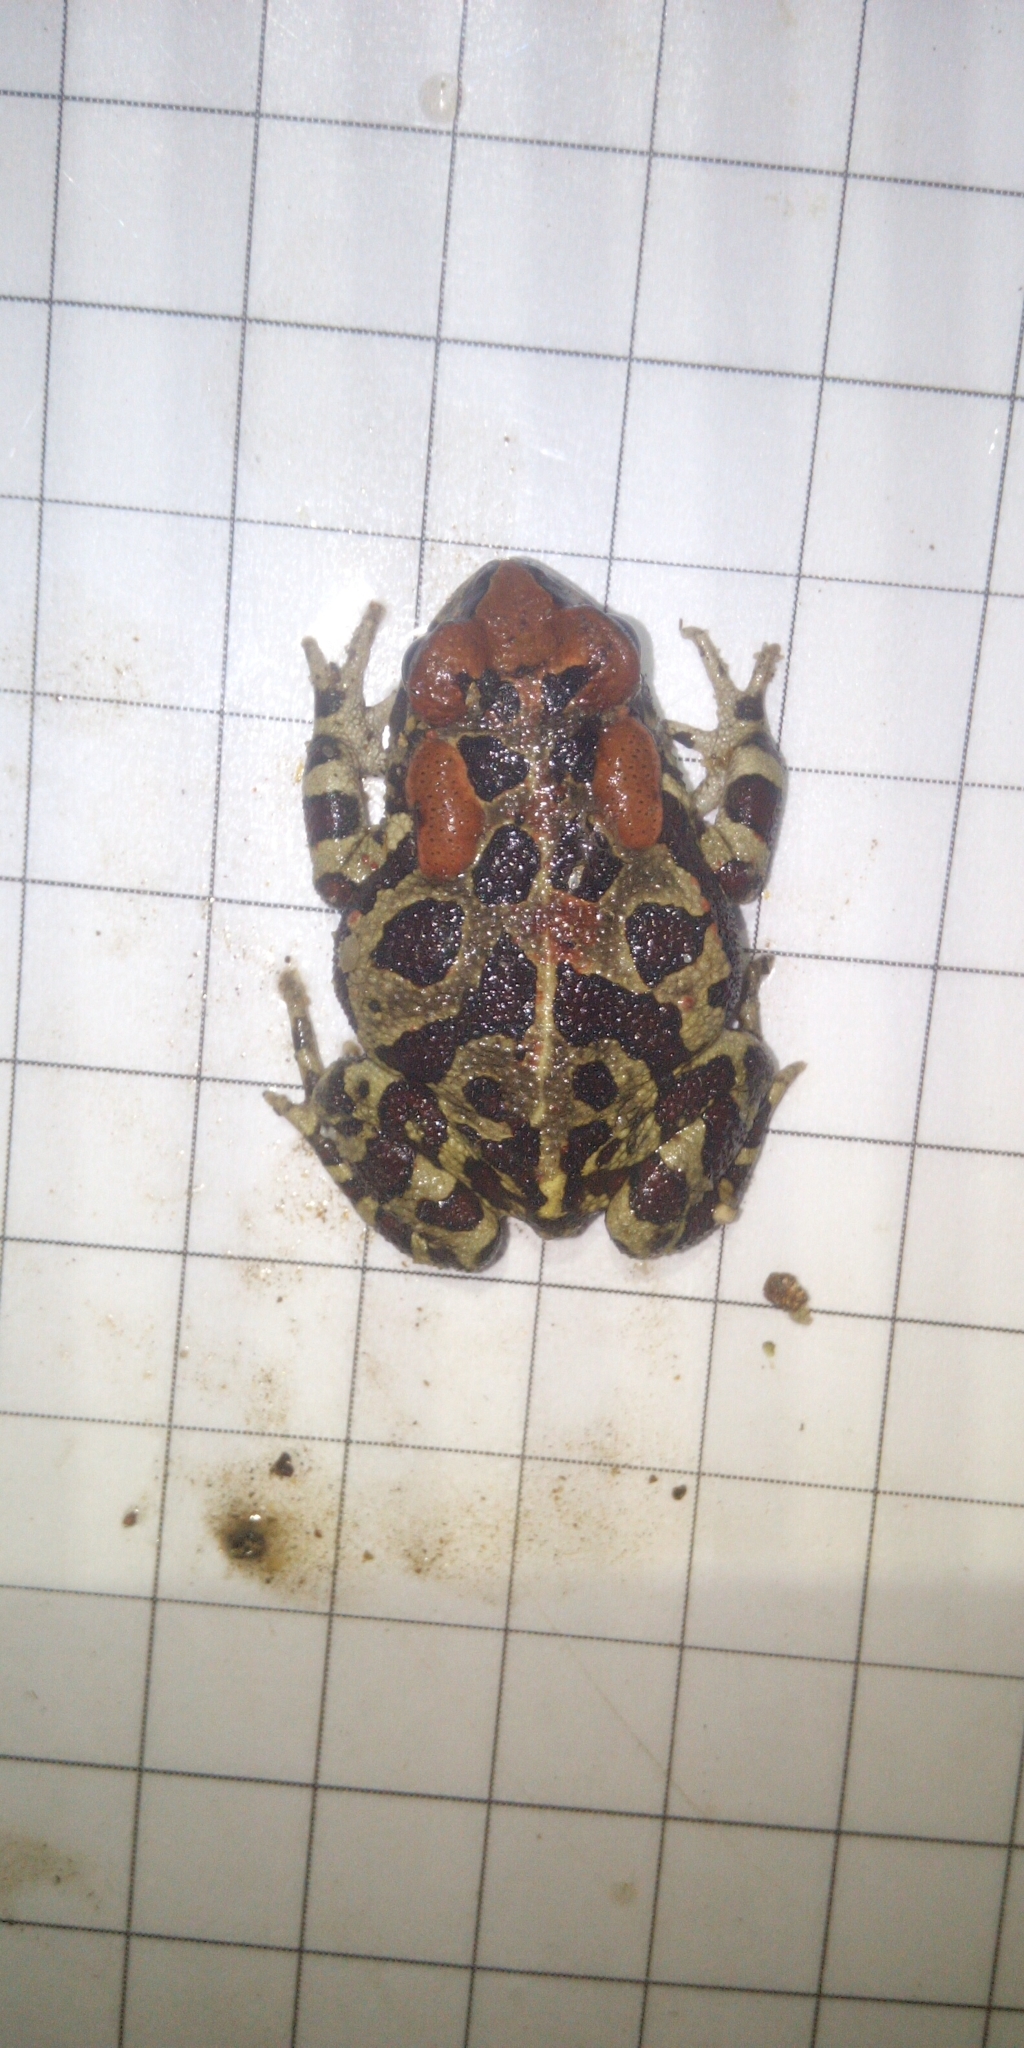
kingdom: Animalia
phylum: Chordata
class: Amphibia
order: Anura
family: Bufonidae
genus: Sclerophrys
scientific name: Sclerophrys pantherina
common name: Panther toad
